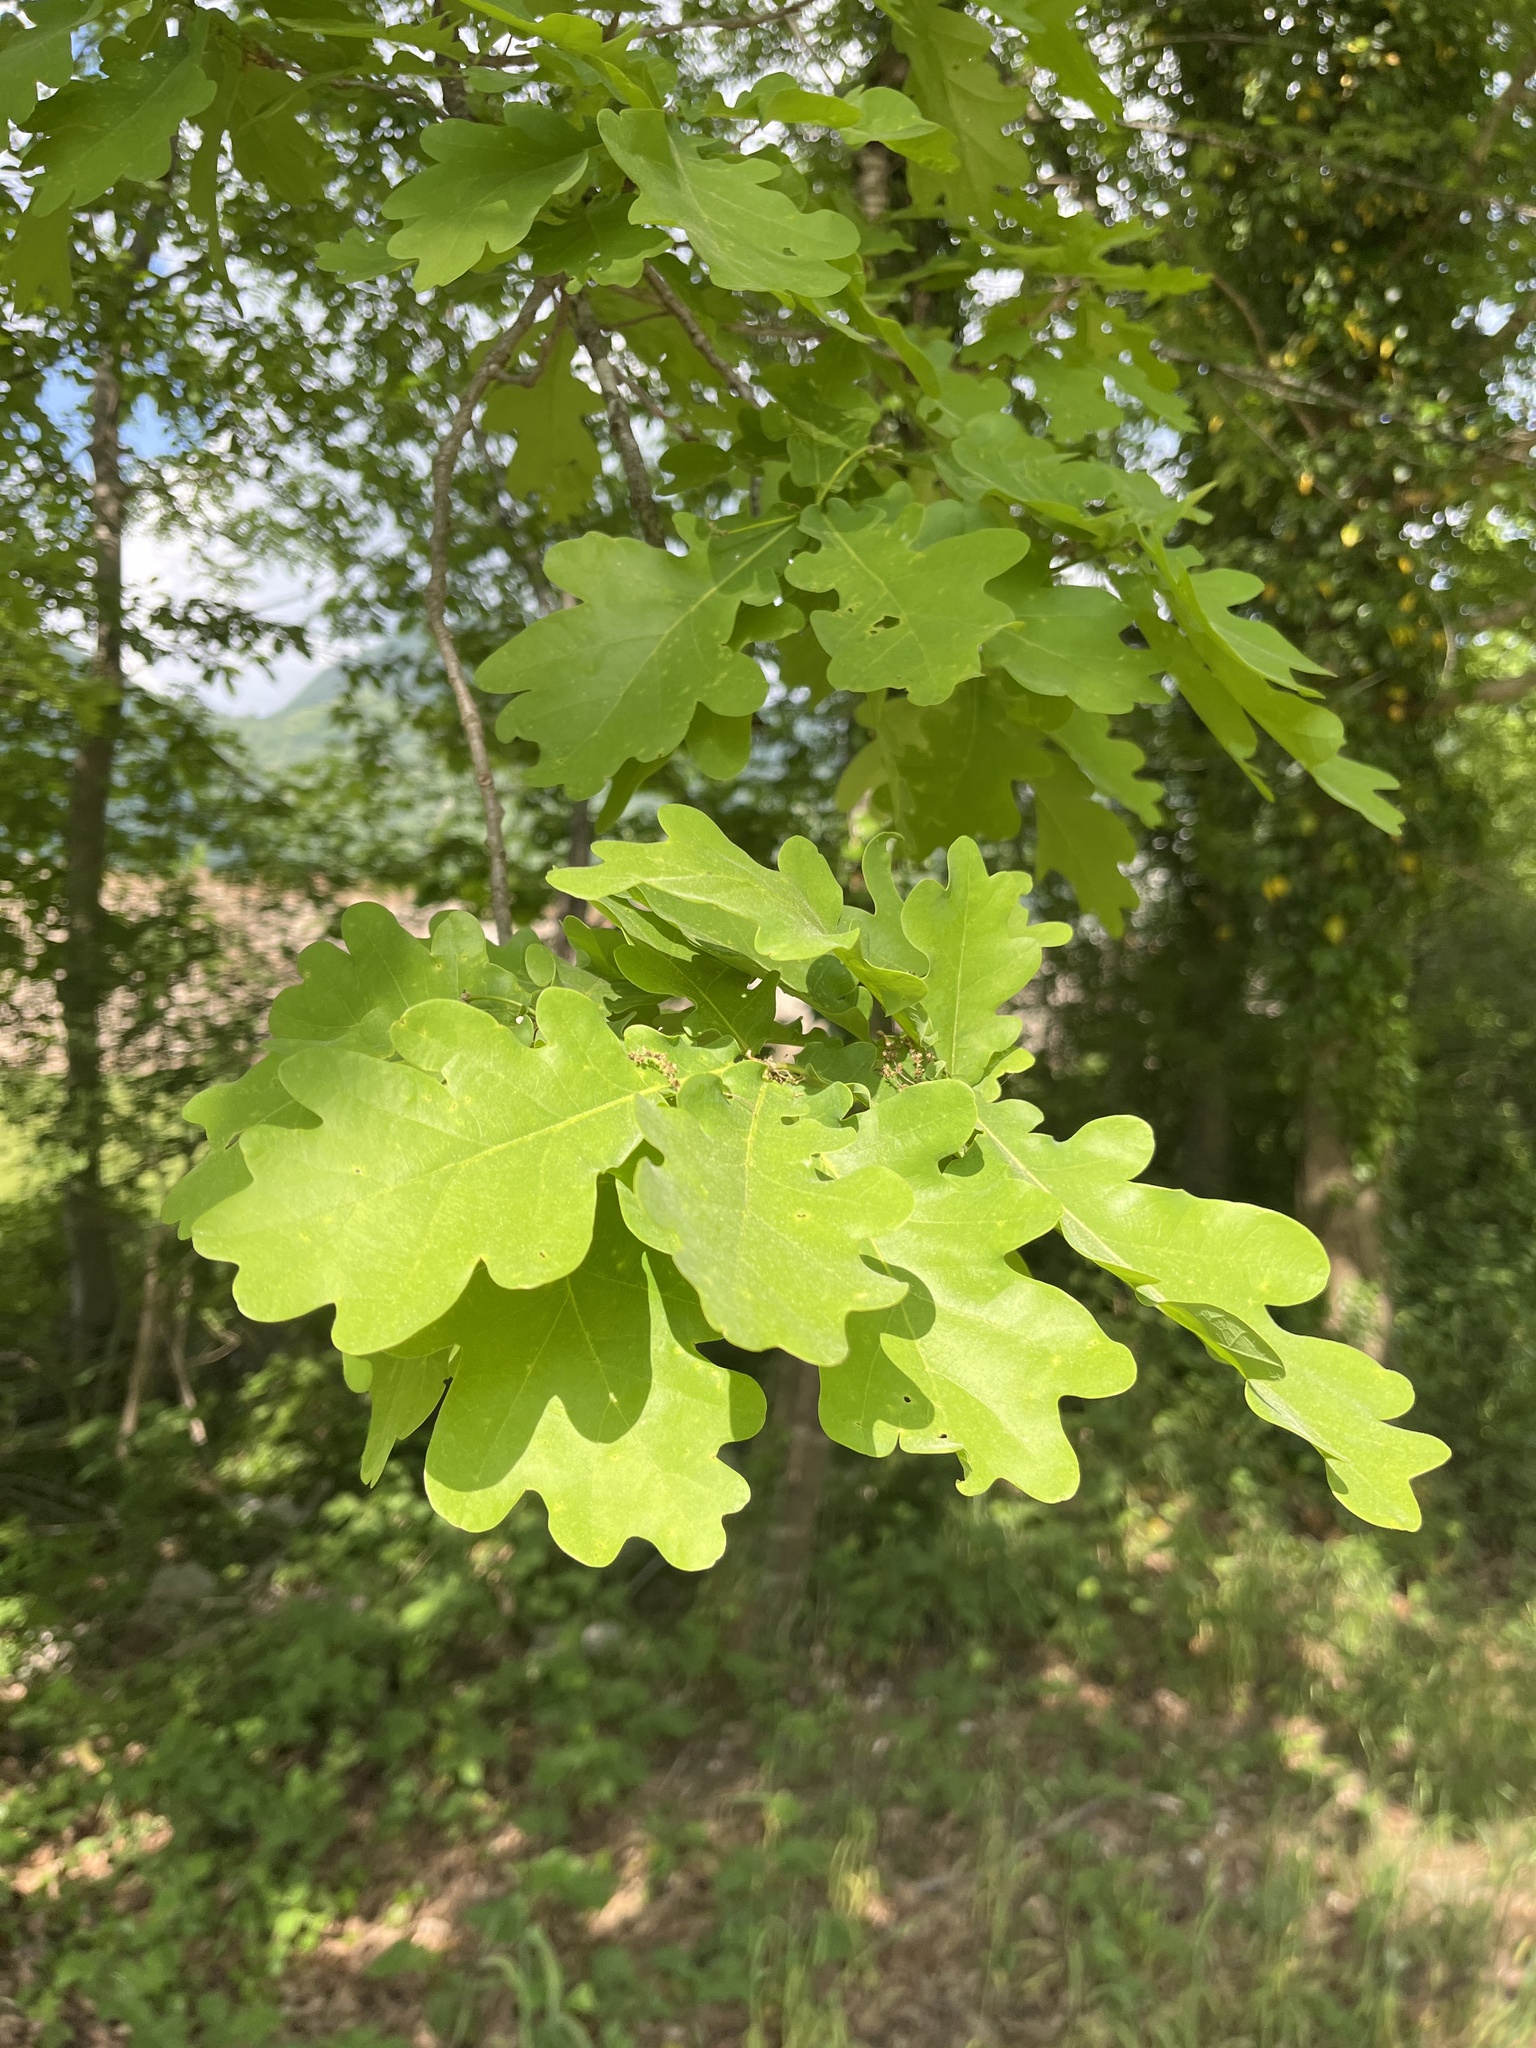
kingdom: Plantae
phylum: Tracheophyta
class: Magnoliopsida
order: Fagales
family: Fagaceae
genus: Quercus
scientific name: Quercus robur
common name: Pedunculate oak
